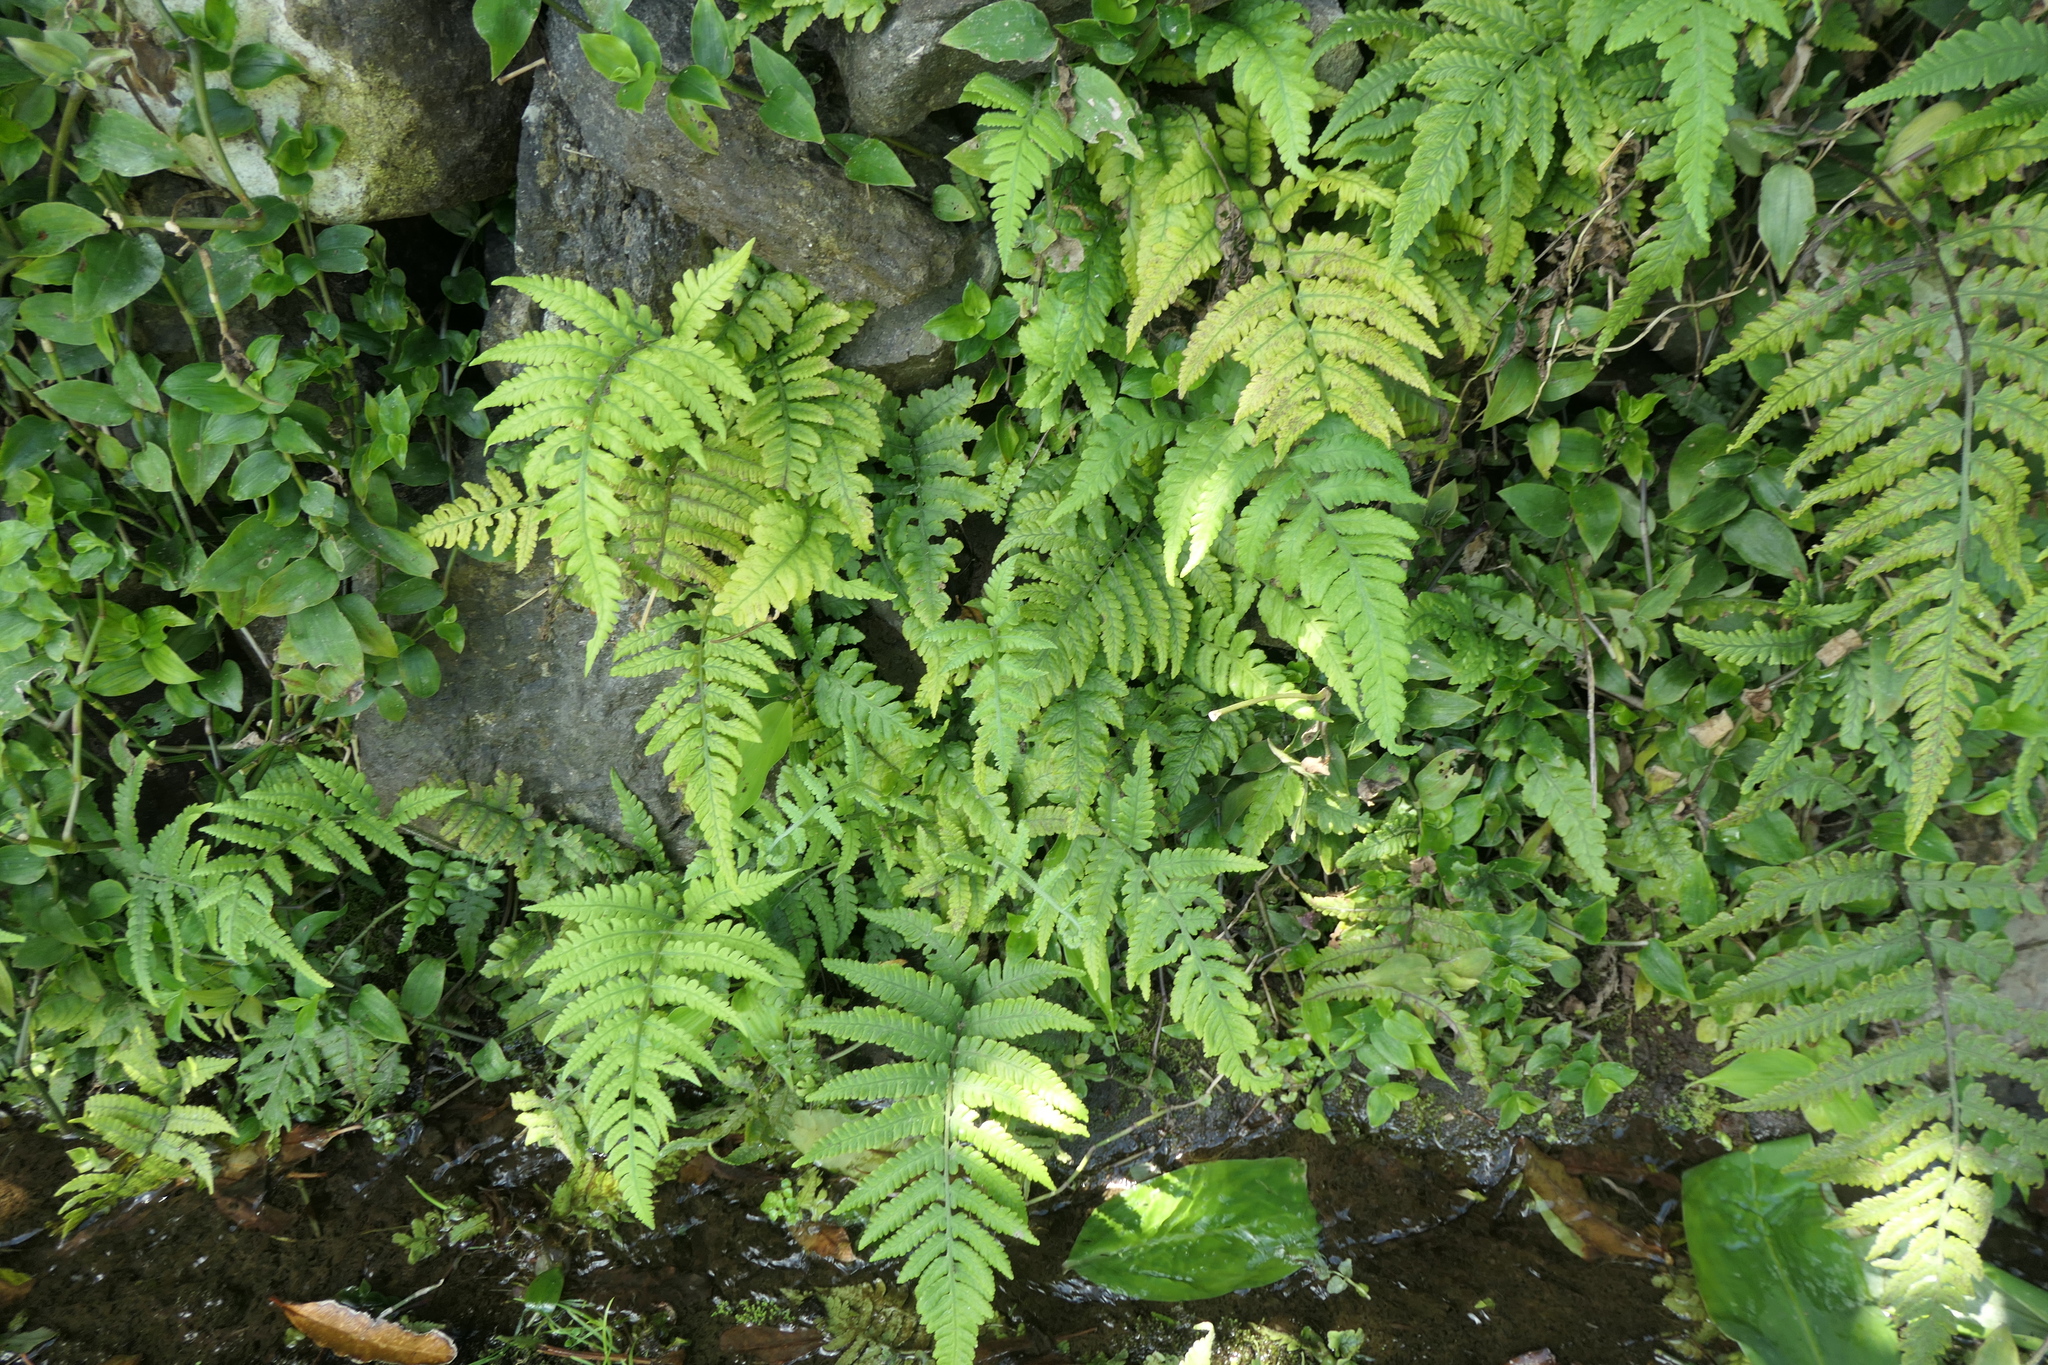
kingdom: Plantae
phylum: Tracheophyta
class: Polypodiopsida
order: Polypodiales
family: Athyriaceae
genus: Deparia
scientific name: Deparia petersenii
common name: Japanese false spleenwort
